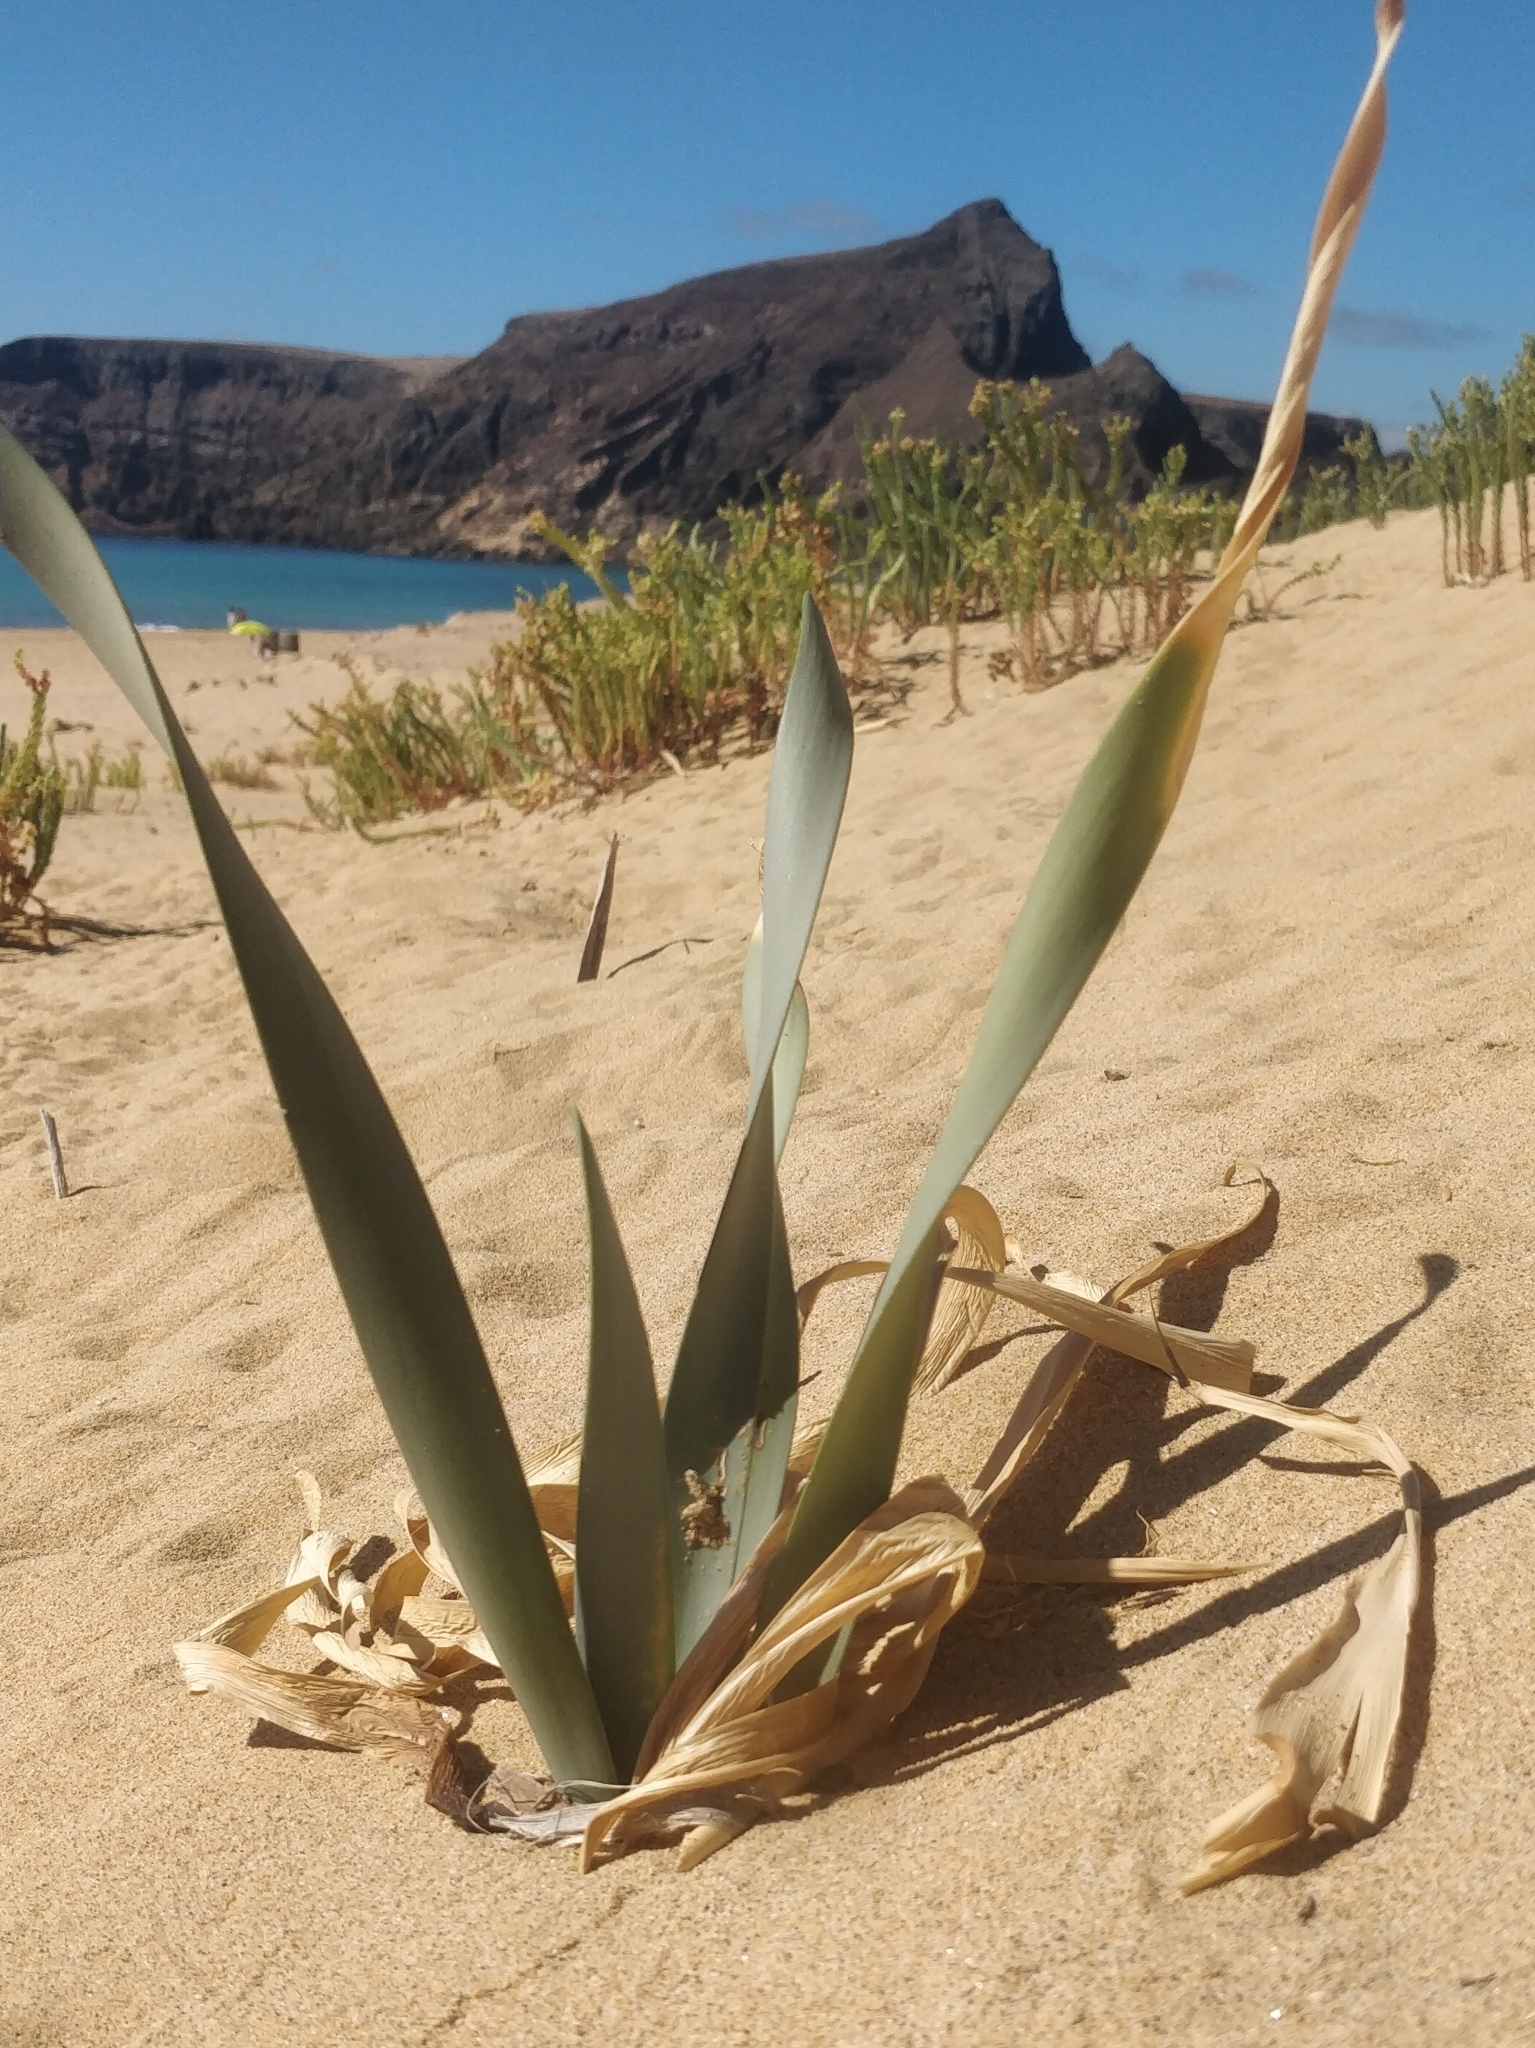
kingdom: Plantae
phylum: Tracheophyta
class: Liliopsida
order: Asparagales
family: Amaryllidaceae
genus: Pancratium
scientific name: Pancratium maritimum
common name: Sea-daffodil
